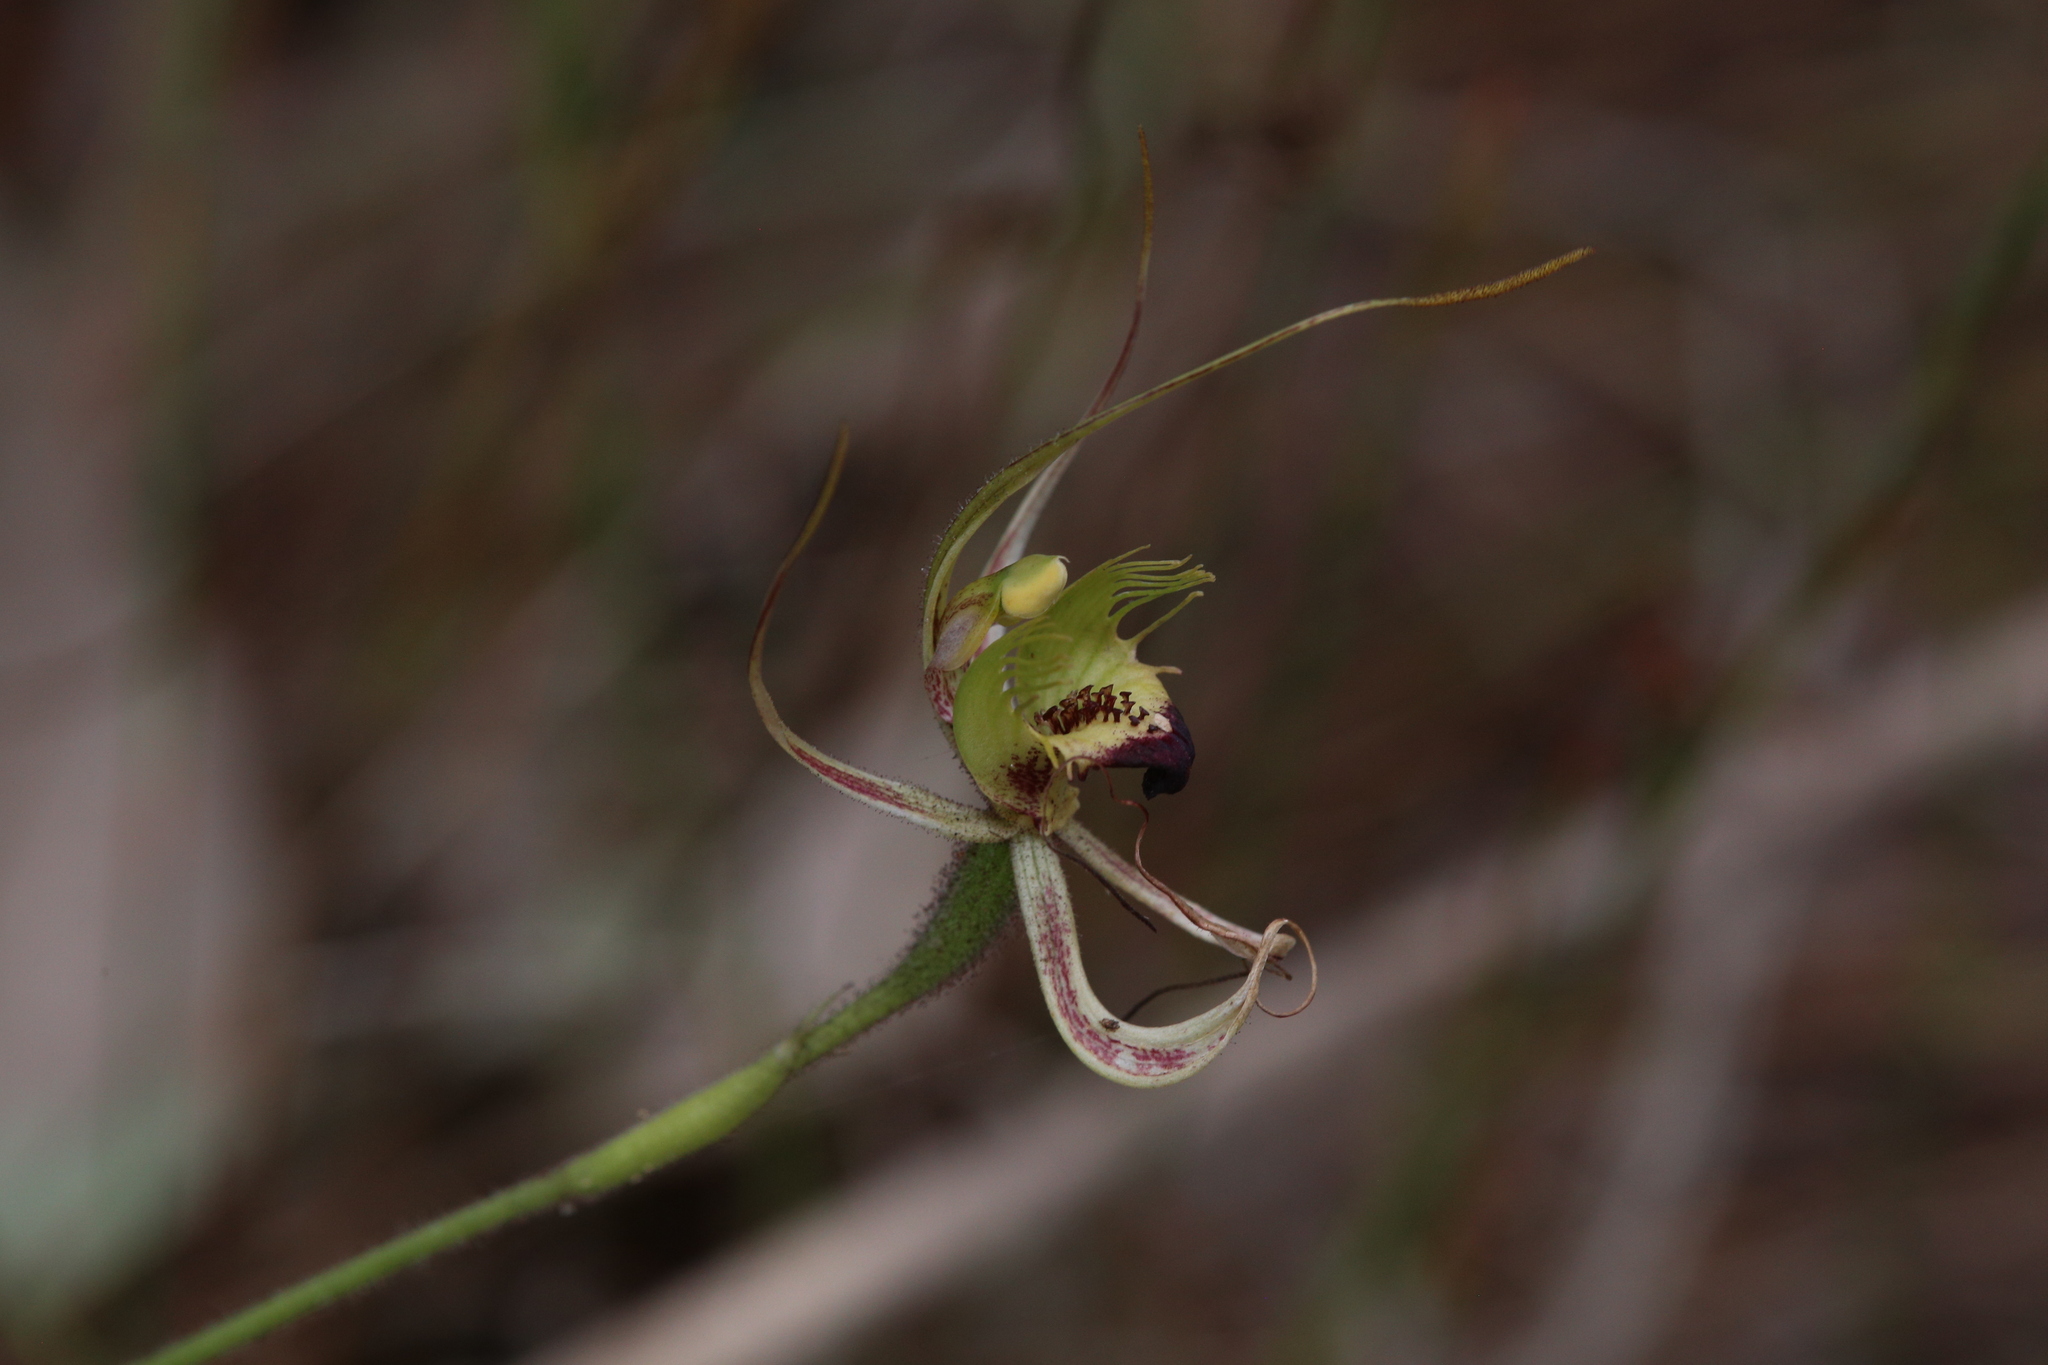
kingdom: Plantae
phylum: Tracheophyta
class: Liliopsida
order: Asparagales
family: Orchidaceae
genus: Caladenia
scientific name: Caladenia attingens
